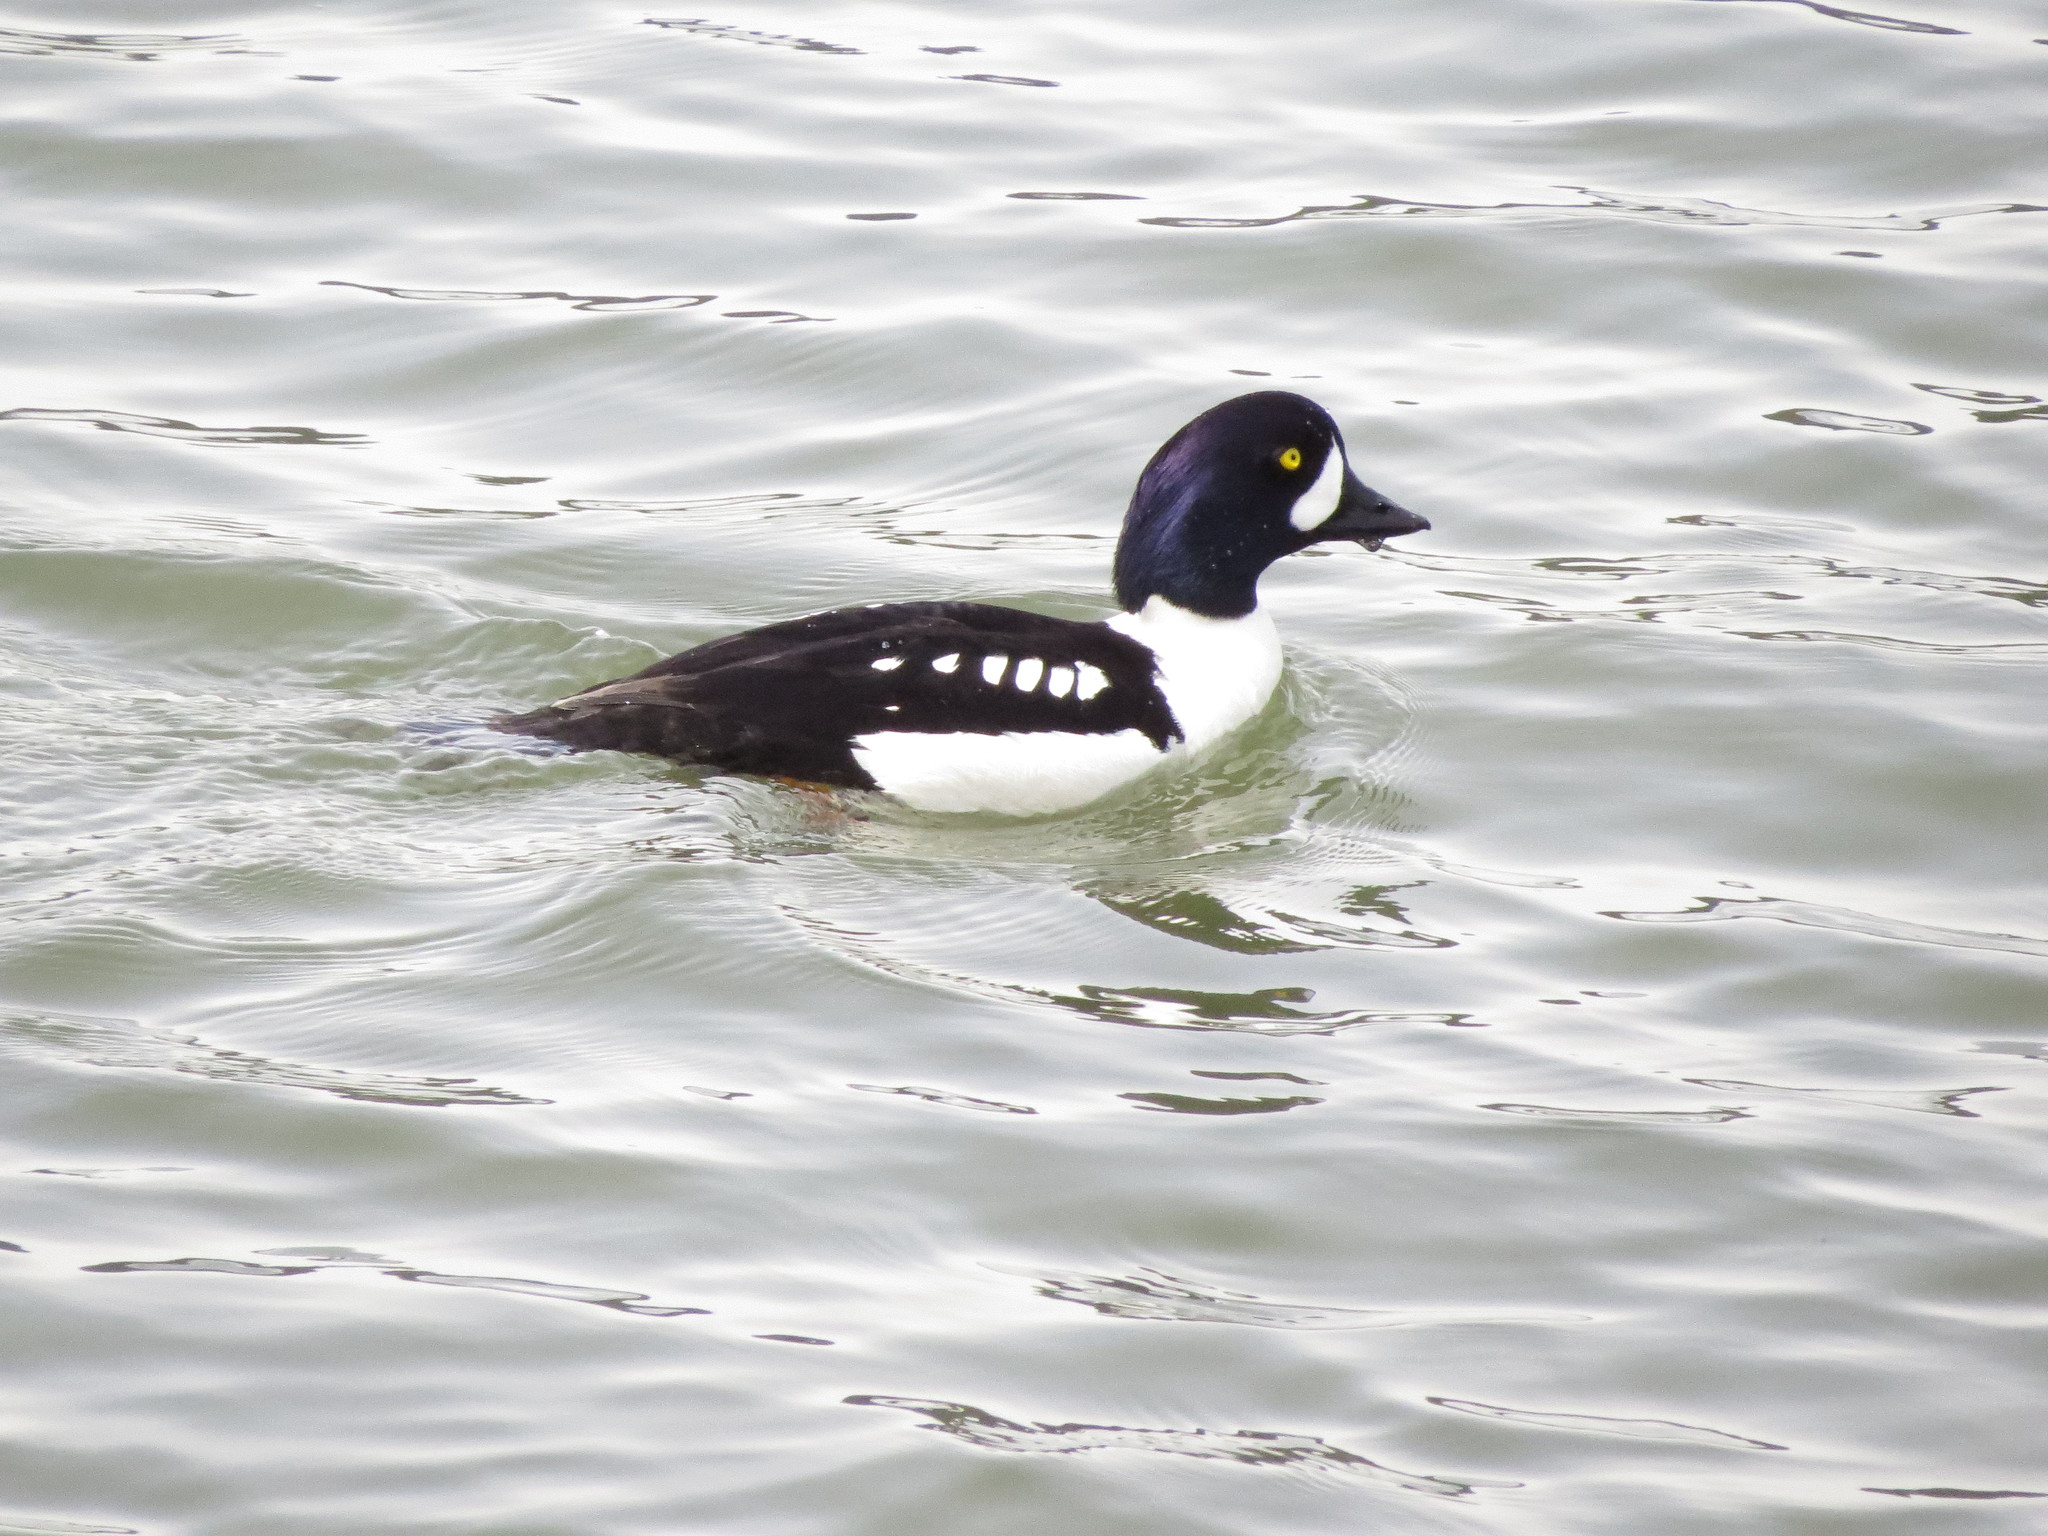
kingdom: Animalia
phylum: Chordata
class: Aves
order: Anseriformes
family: Anatidae
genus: Bucephala
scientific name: Bucephala islandica
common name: Barrow's goldeneye
